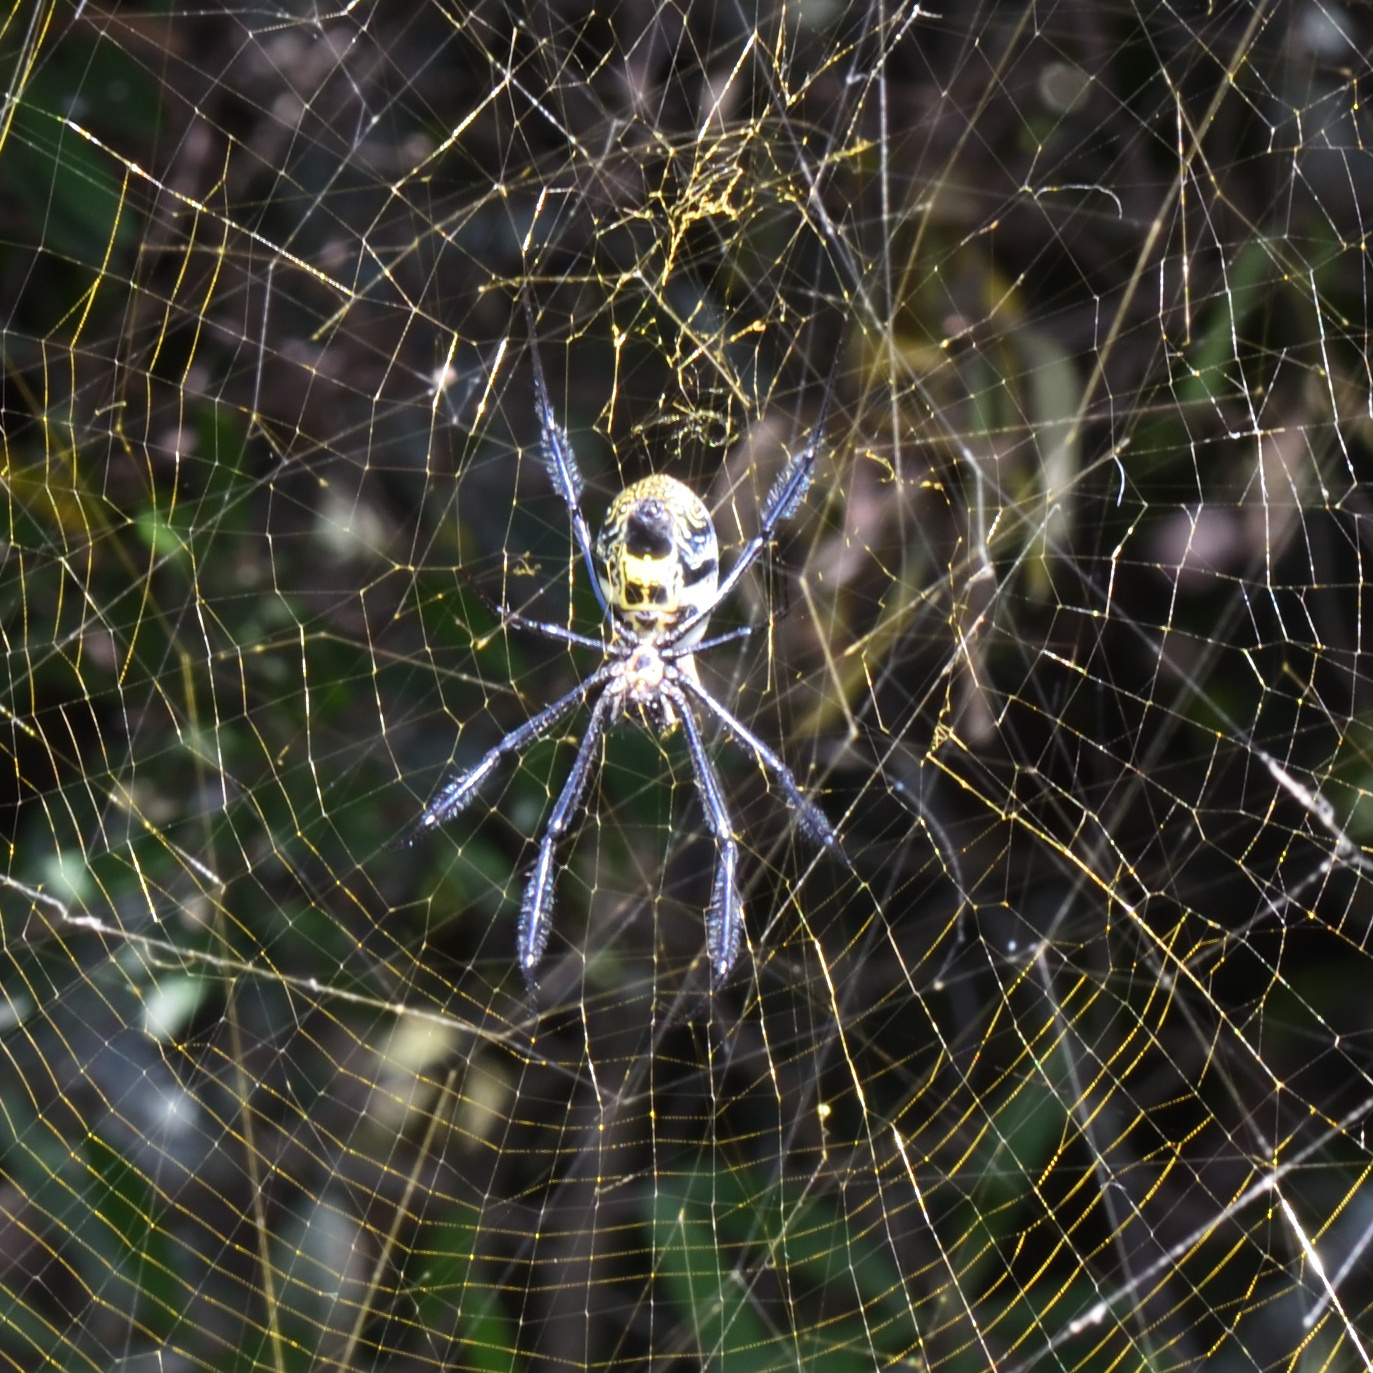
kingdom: Animalia
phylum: Arthropoda
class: Arachnida
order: Araneae
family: Araneidae
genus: Trichonephila
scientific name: Trichonephila fenestrata
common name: Hairy golden orb weaver
